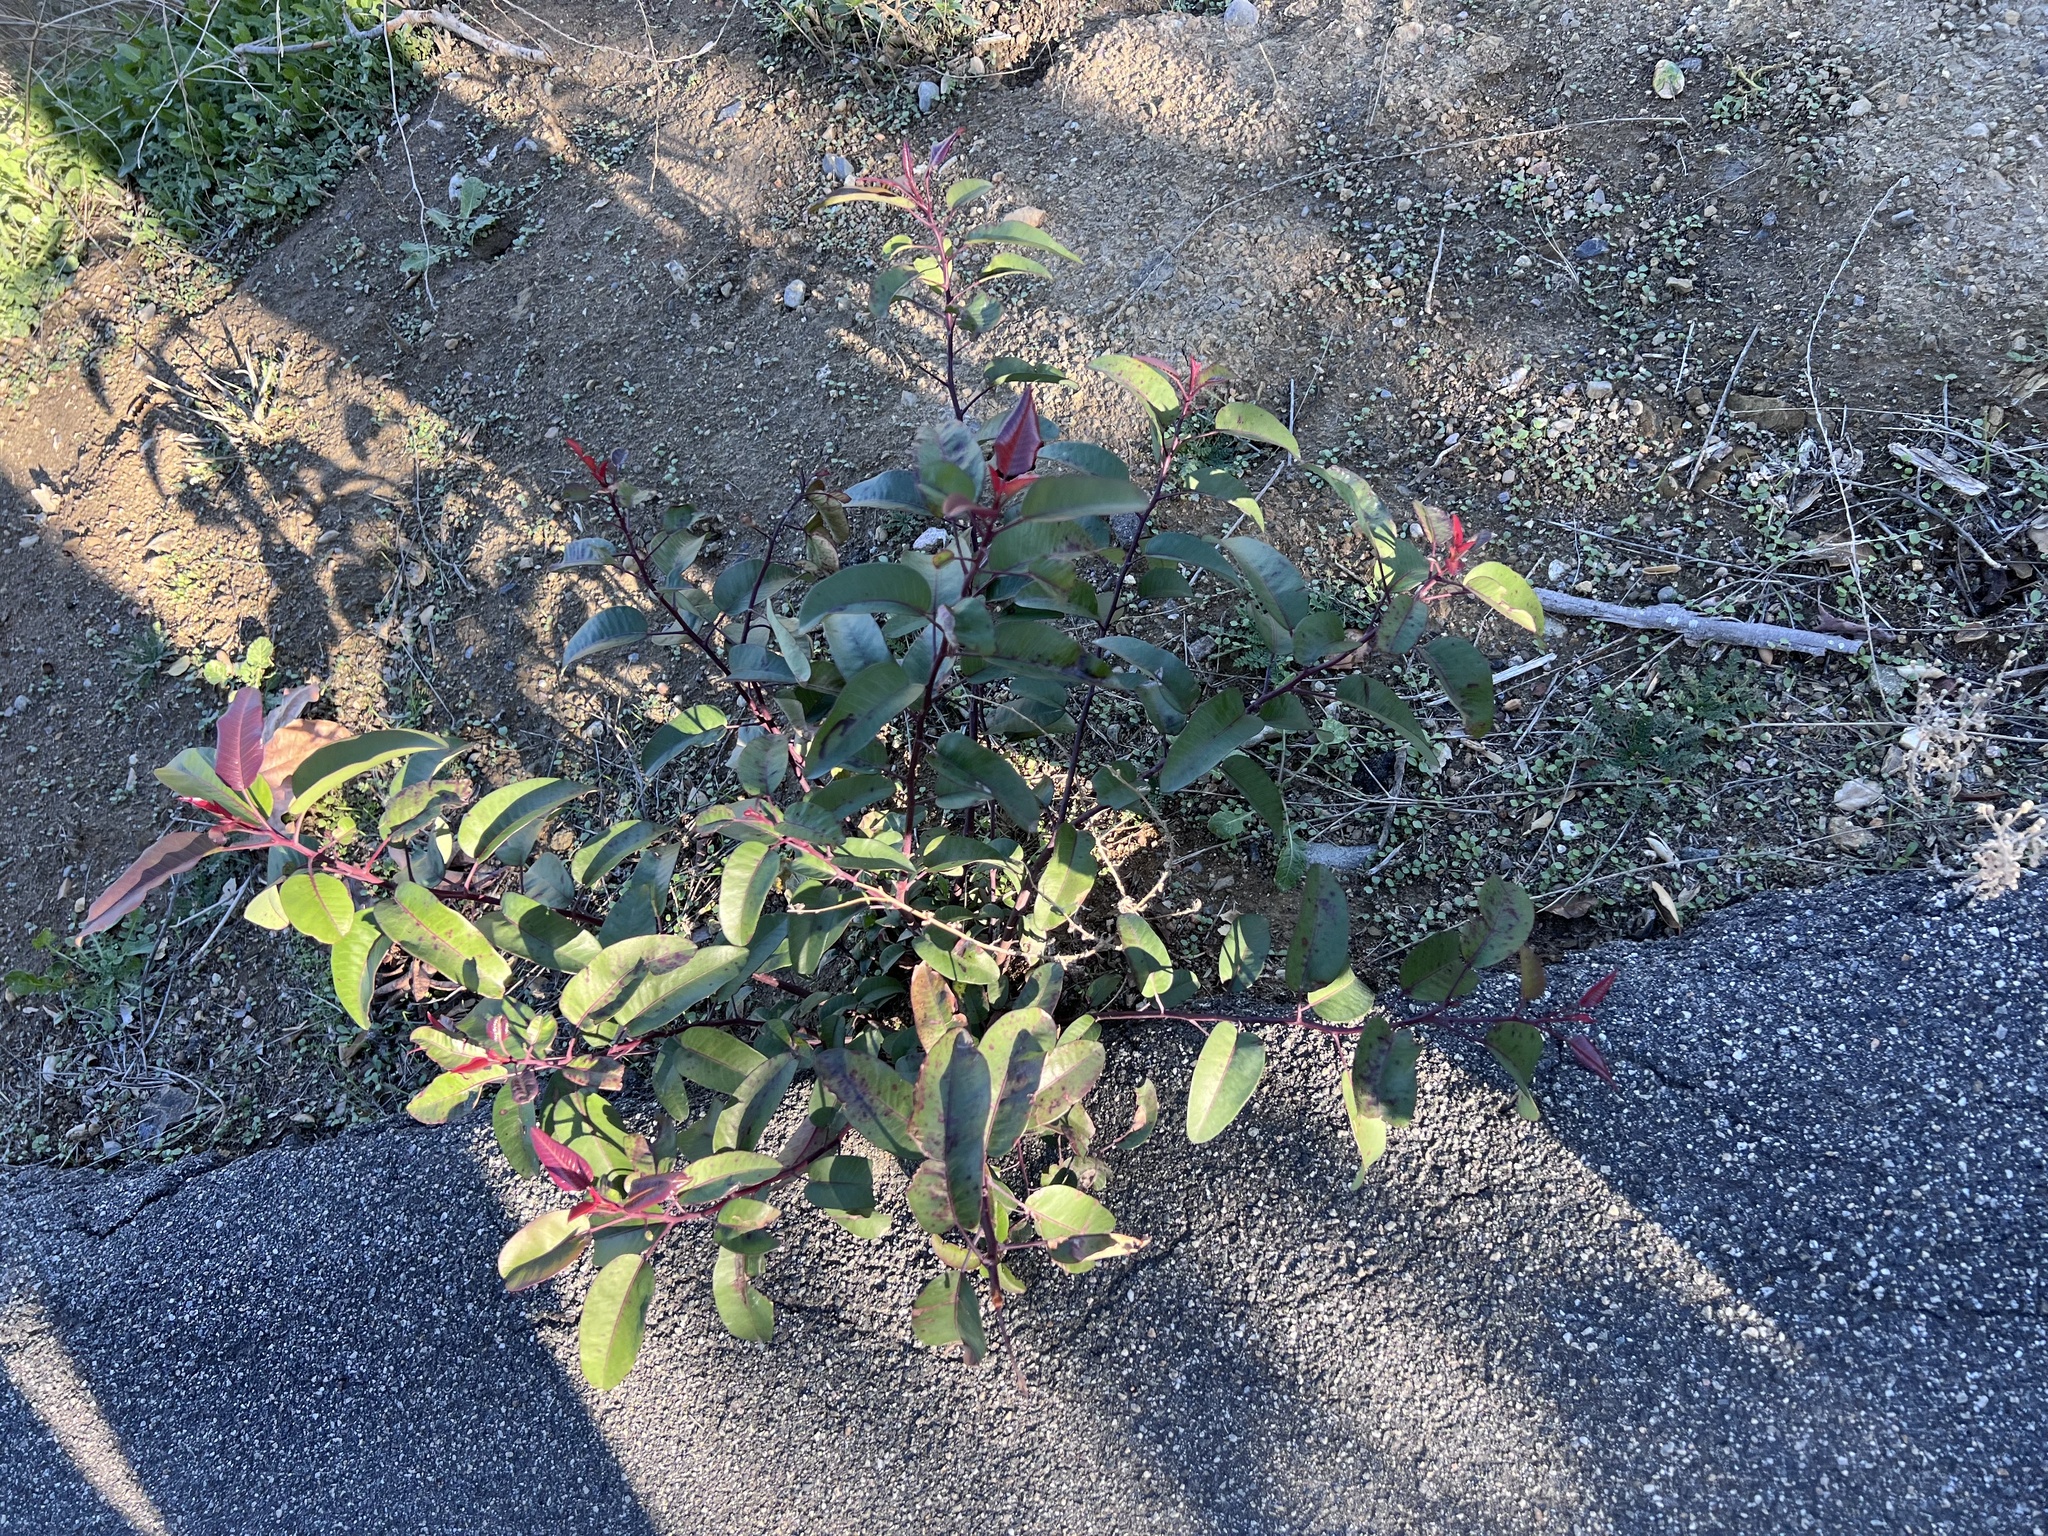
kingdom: Plantae
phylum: Tracheophyta
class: Magnoliopsida
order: Sapindales
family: Anacardiaceae
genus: Malosma
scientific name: Malosma laurina
